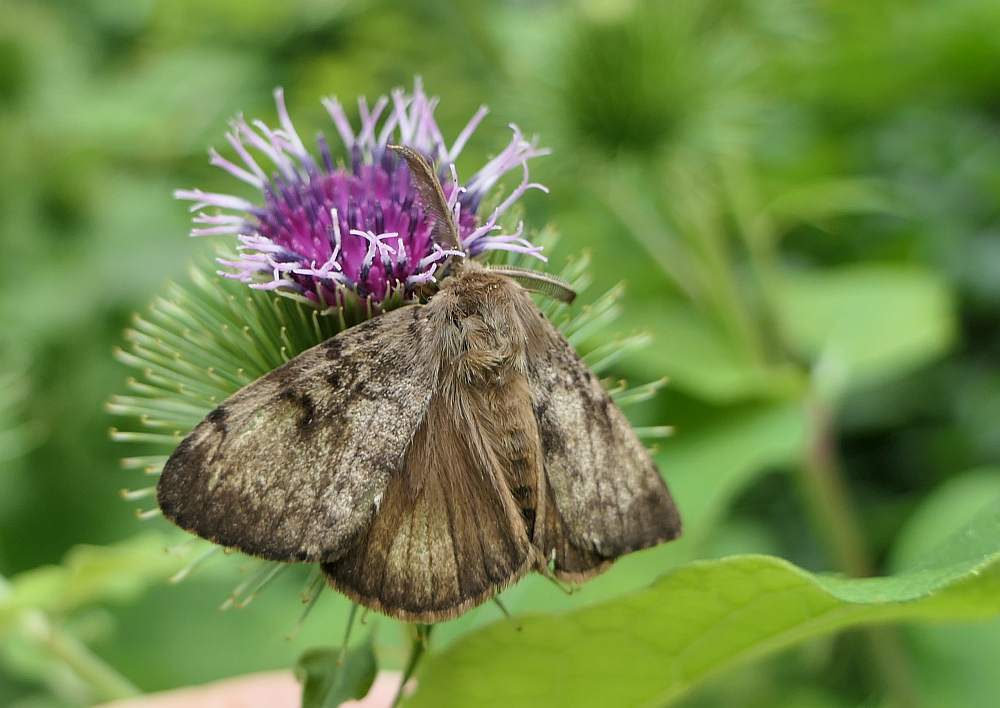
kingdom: Animalia
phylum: Arthropoda
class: Insecta
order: Lepidoptera
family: Erebidae
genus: Lymantria
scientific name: Lymantria dispar
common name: Gypsy moth
